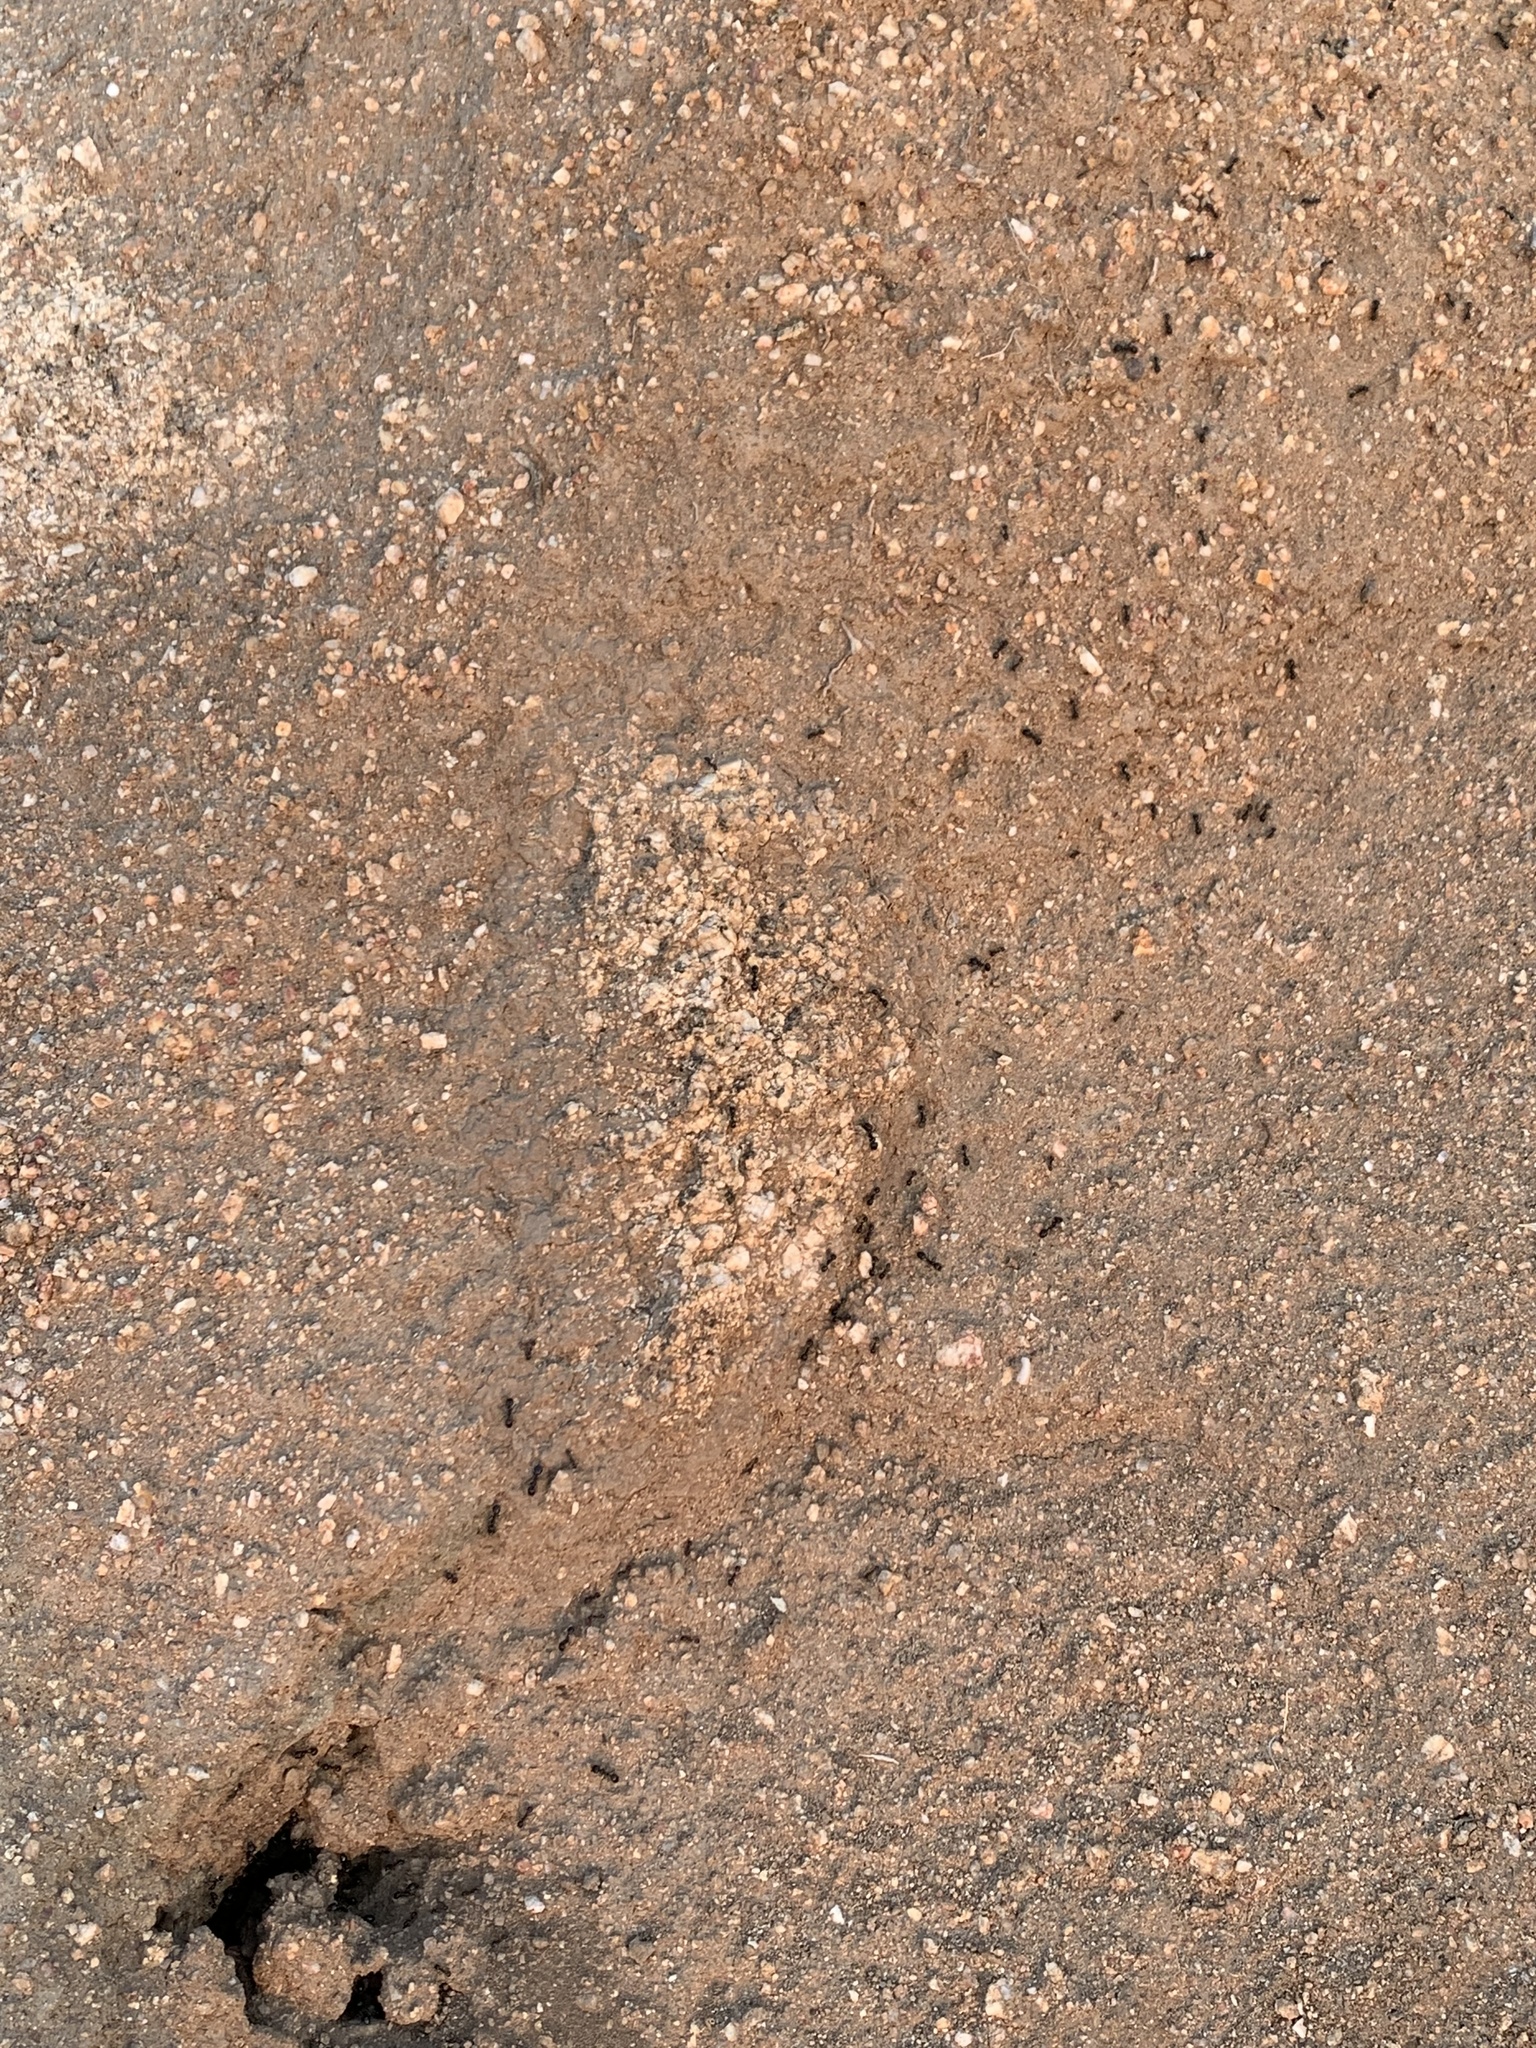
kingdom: Animalia
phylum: Arthropoda
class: Insecta
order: Hymenoptera
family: Formicidae
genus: Messor
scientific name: Messor pergandei
